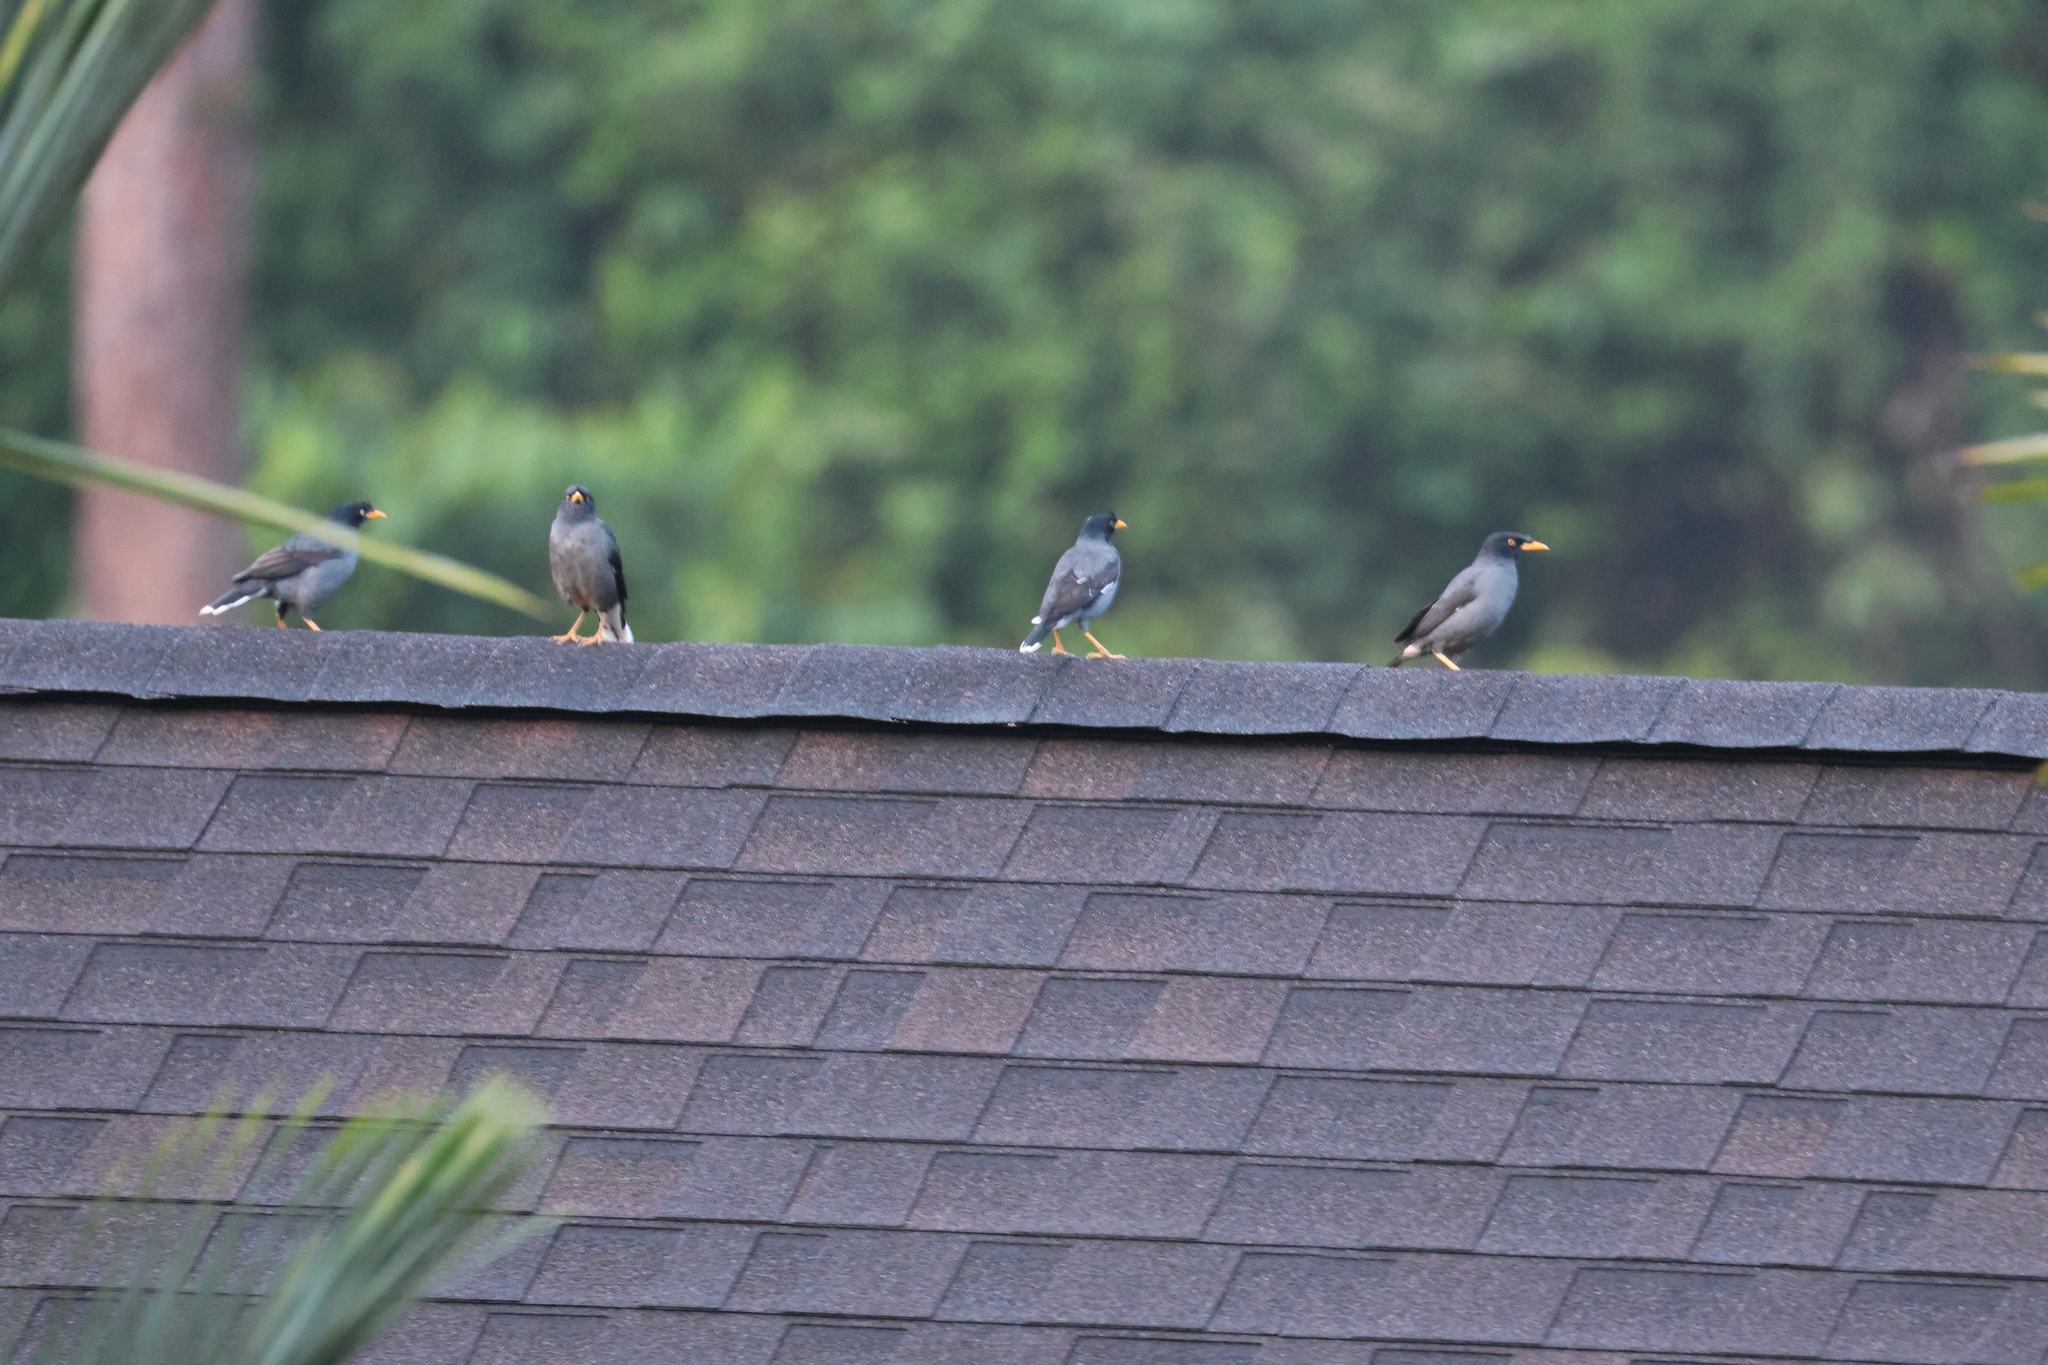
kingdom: Animalia
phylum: Chordata
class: Aves
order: Passeriformes
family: Sturnidae
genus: Acridotheres
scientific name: Acridotheres javanicus
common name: Javan myna
